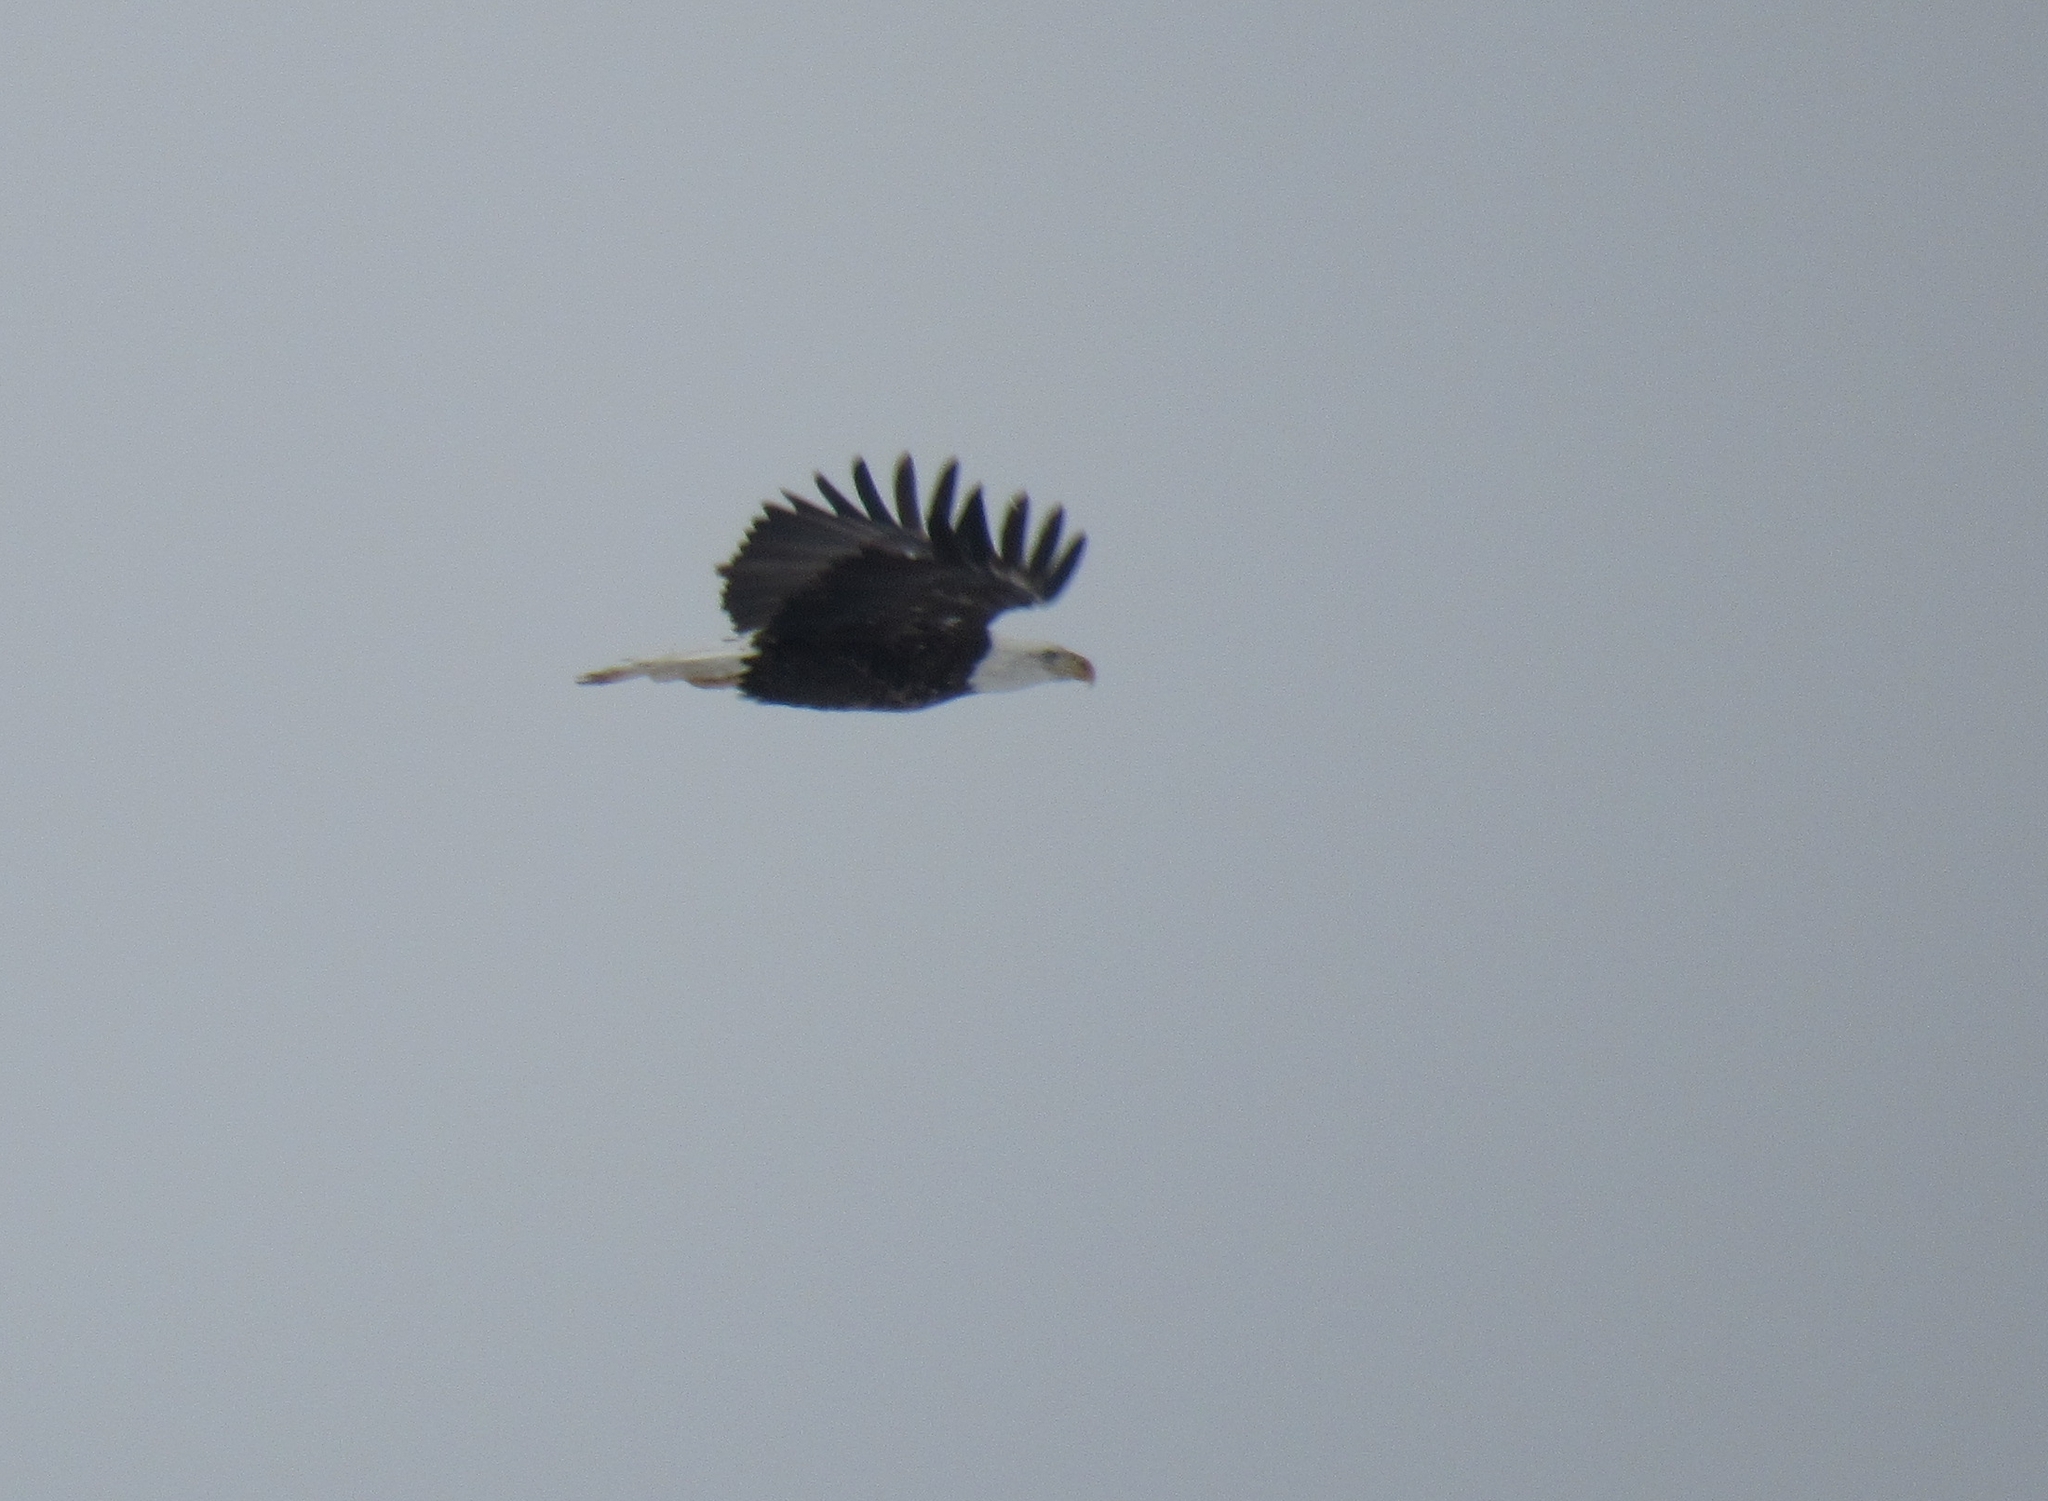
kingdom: Animalia
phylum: Chordata
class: Aves
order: Accipitriformes
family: Accipitridae
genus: Haliaeetus
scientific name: Haliaeetus leucocephalus
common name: Bald eagle
